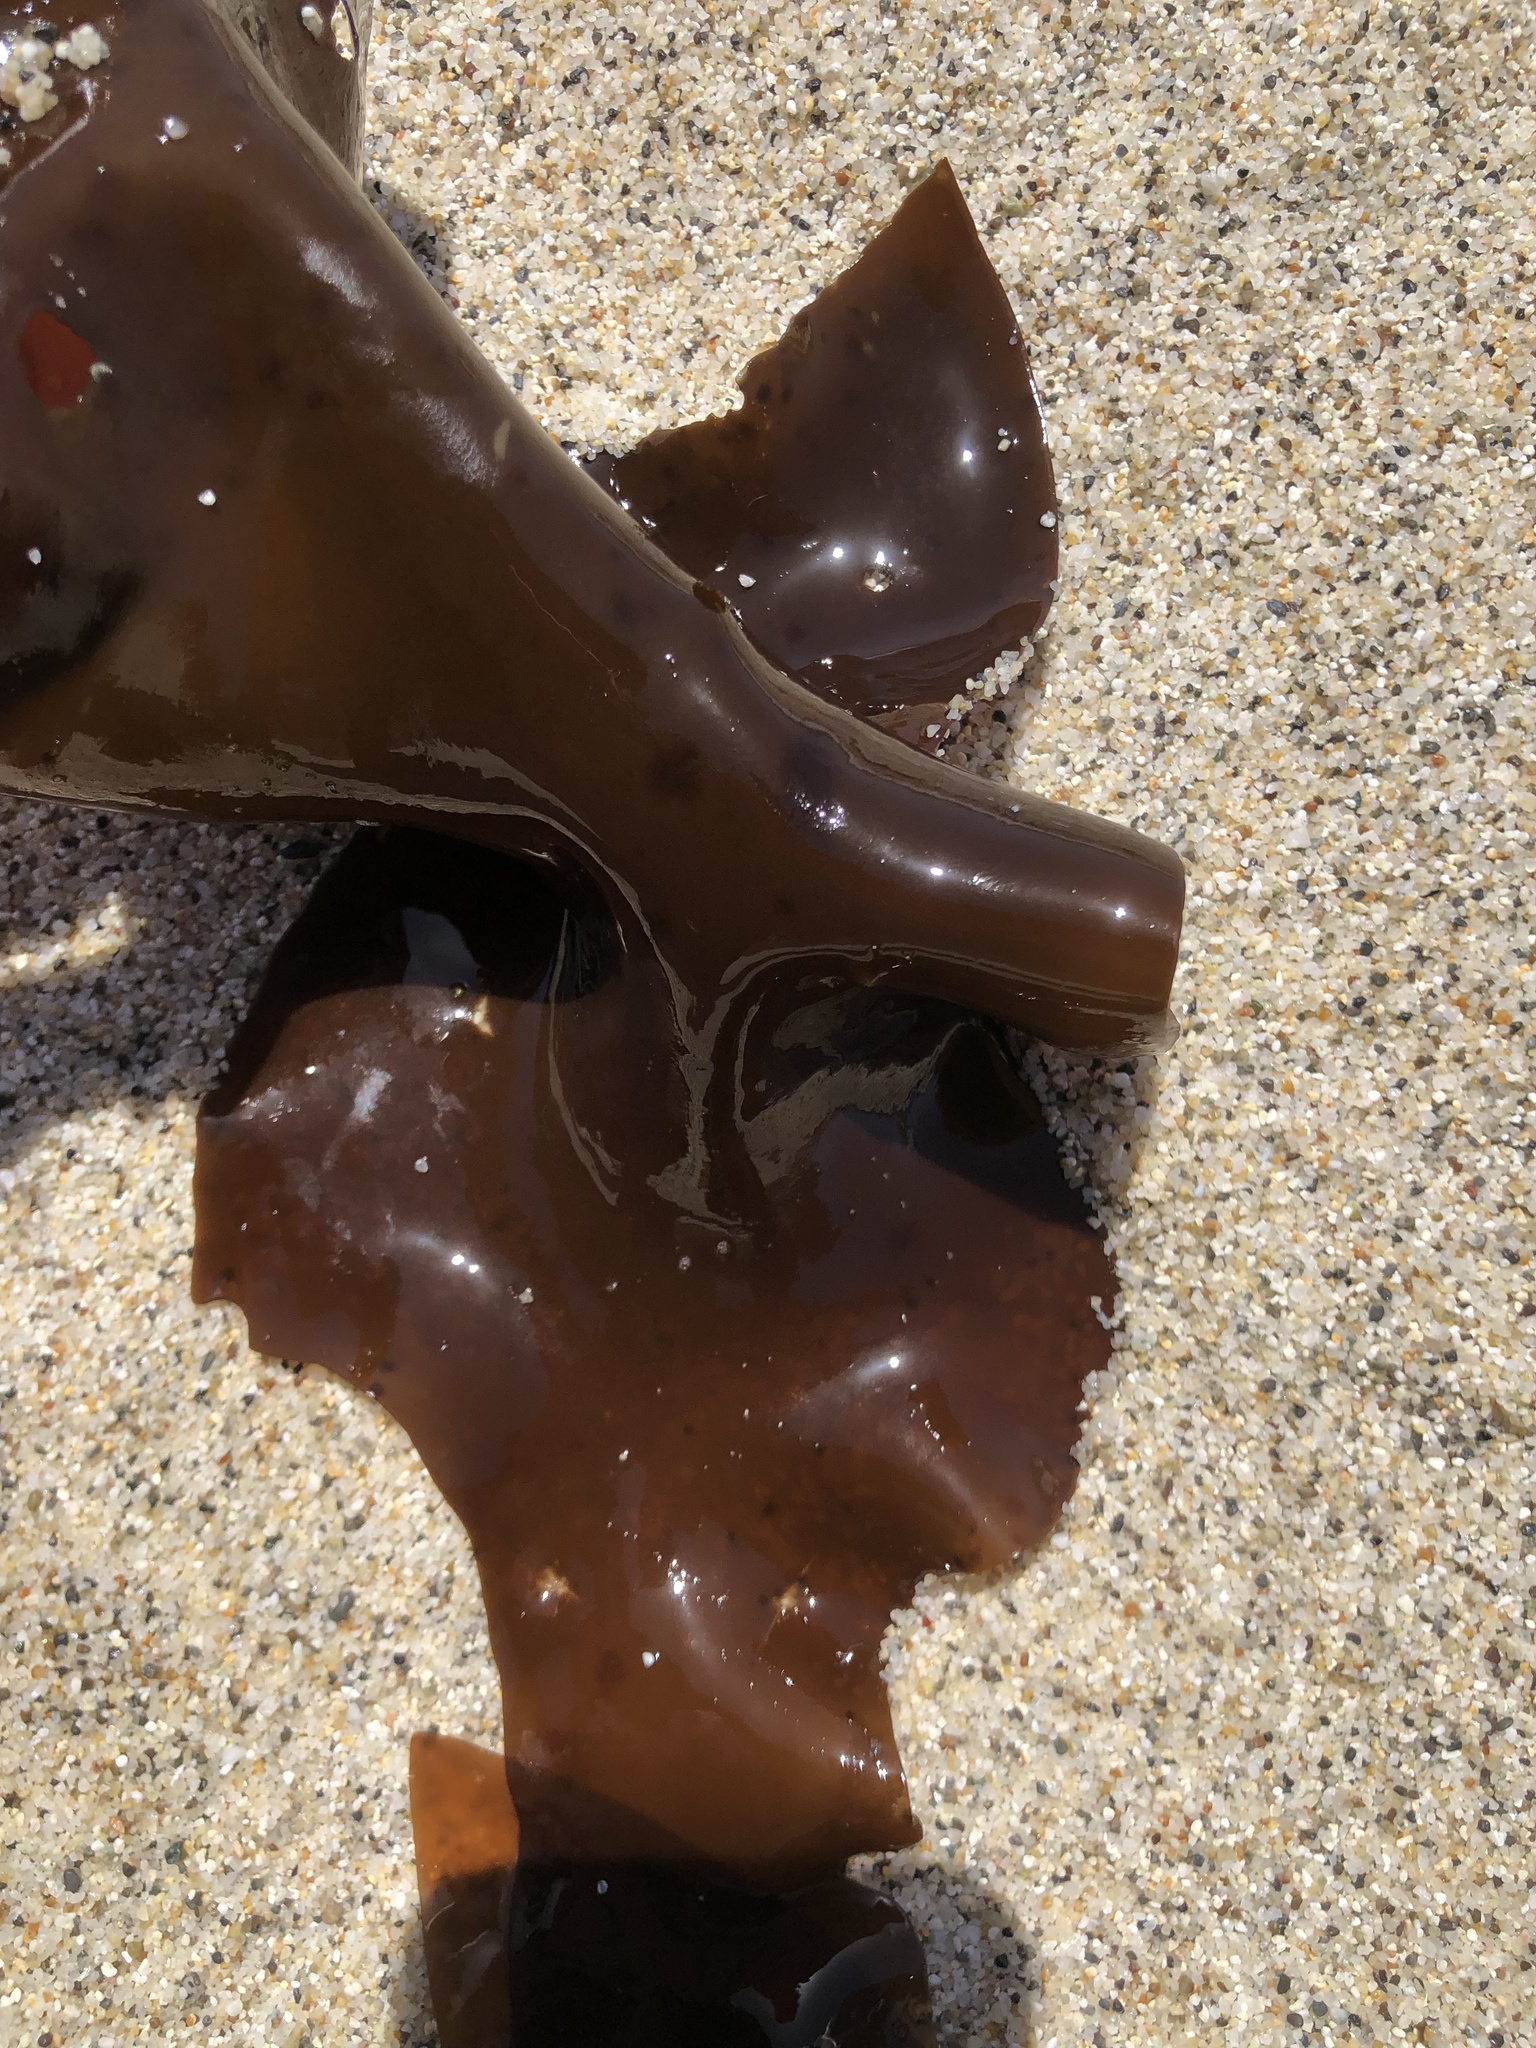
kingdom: Plantae
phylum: Rhodophyta
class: Florideophyceae
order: Gigartinales
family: Gigartinaceae
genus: Mazzaella
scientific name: Mazzaella splendens
